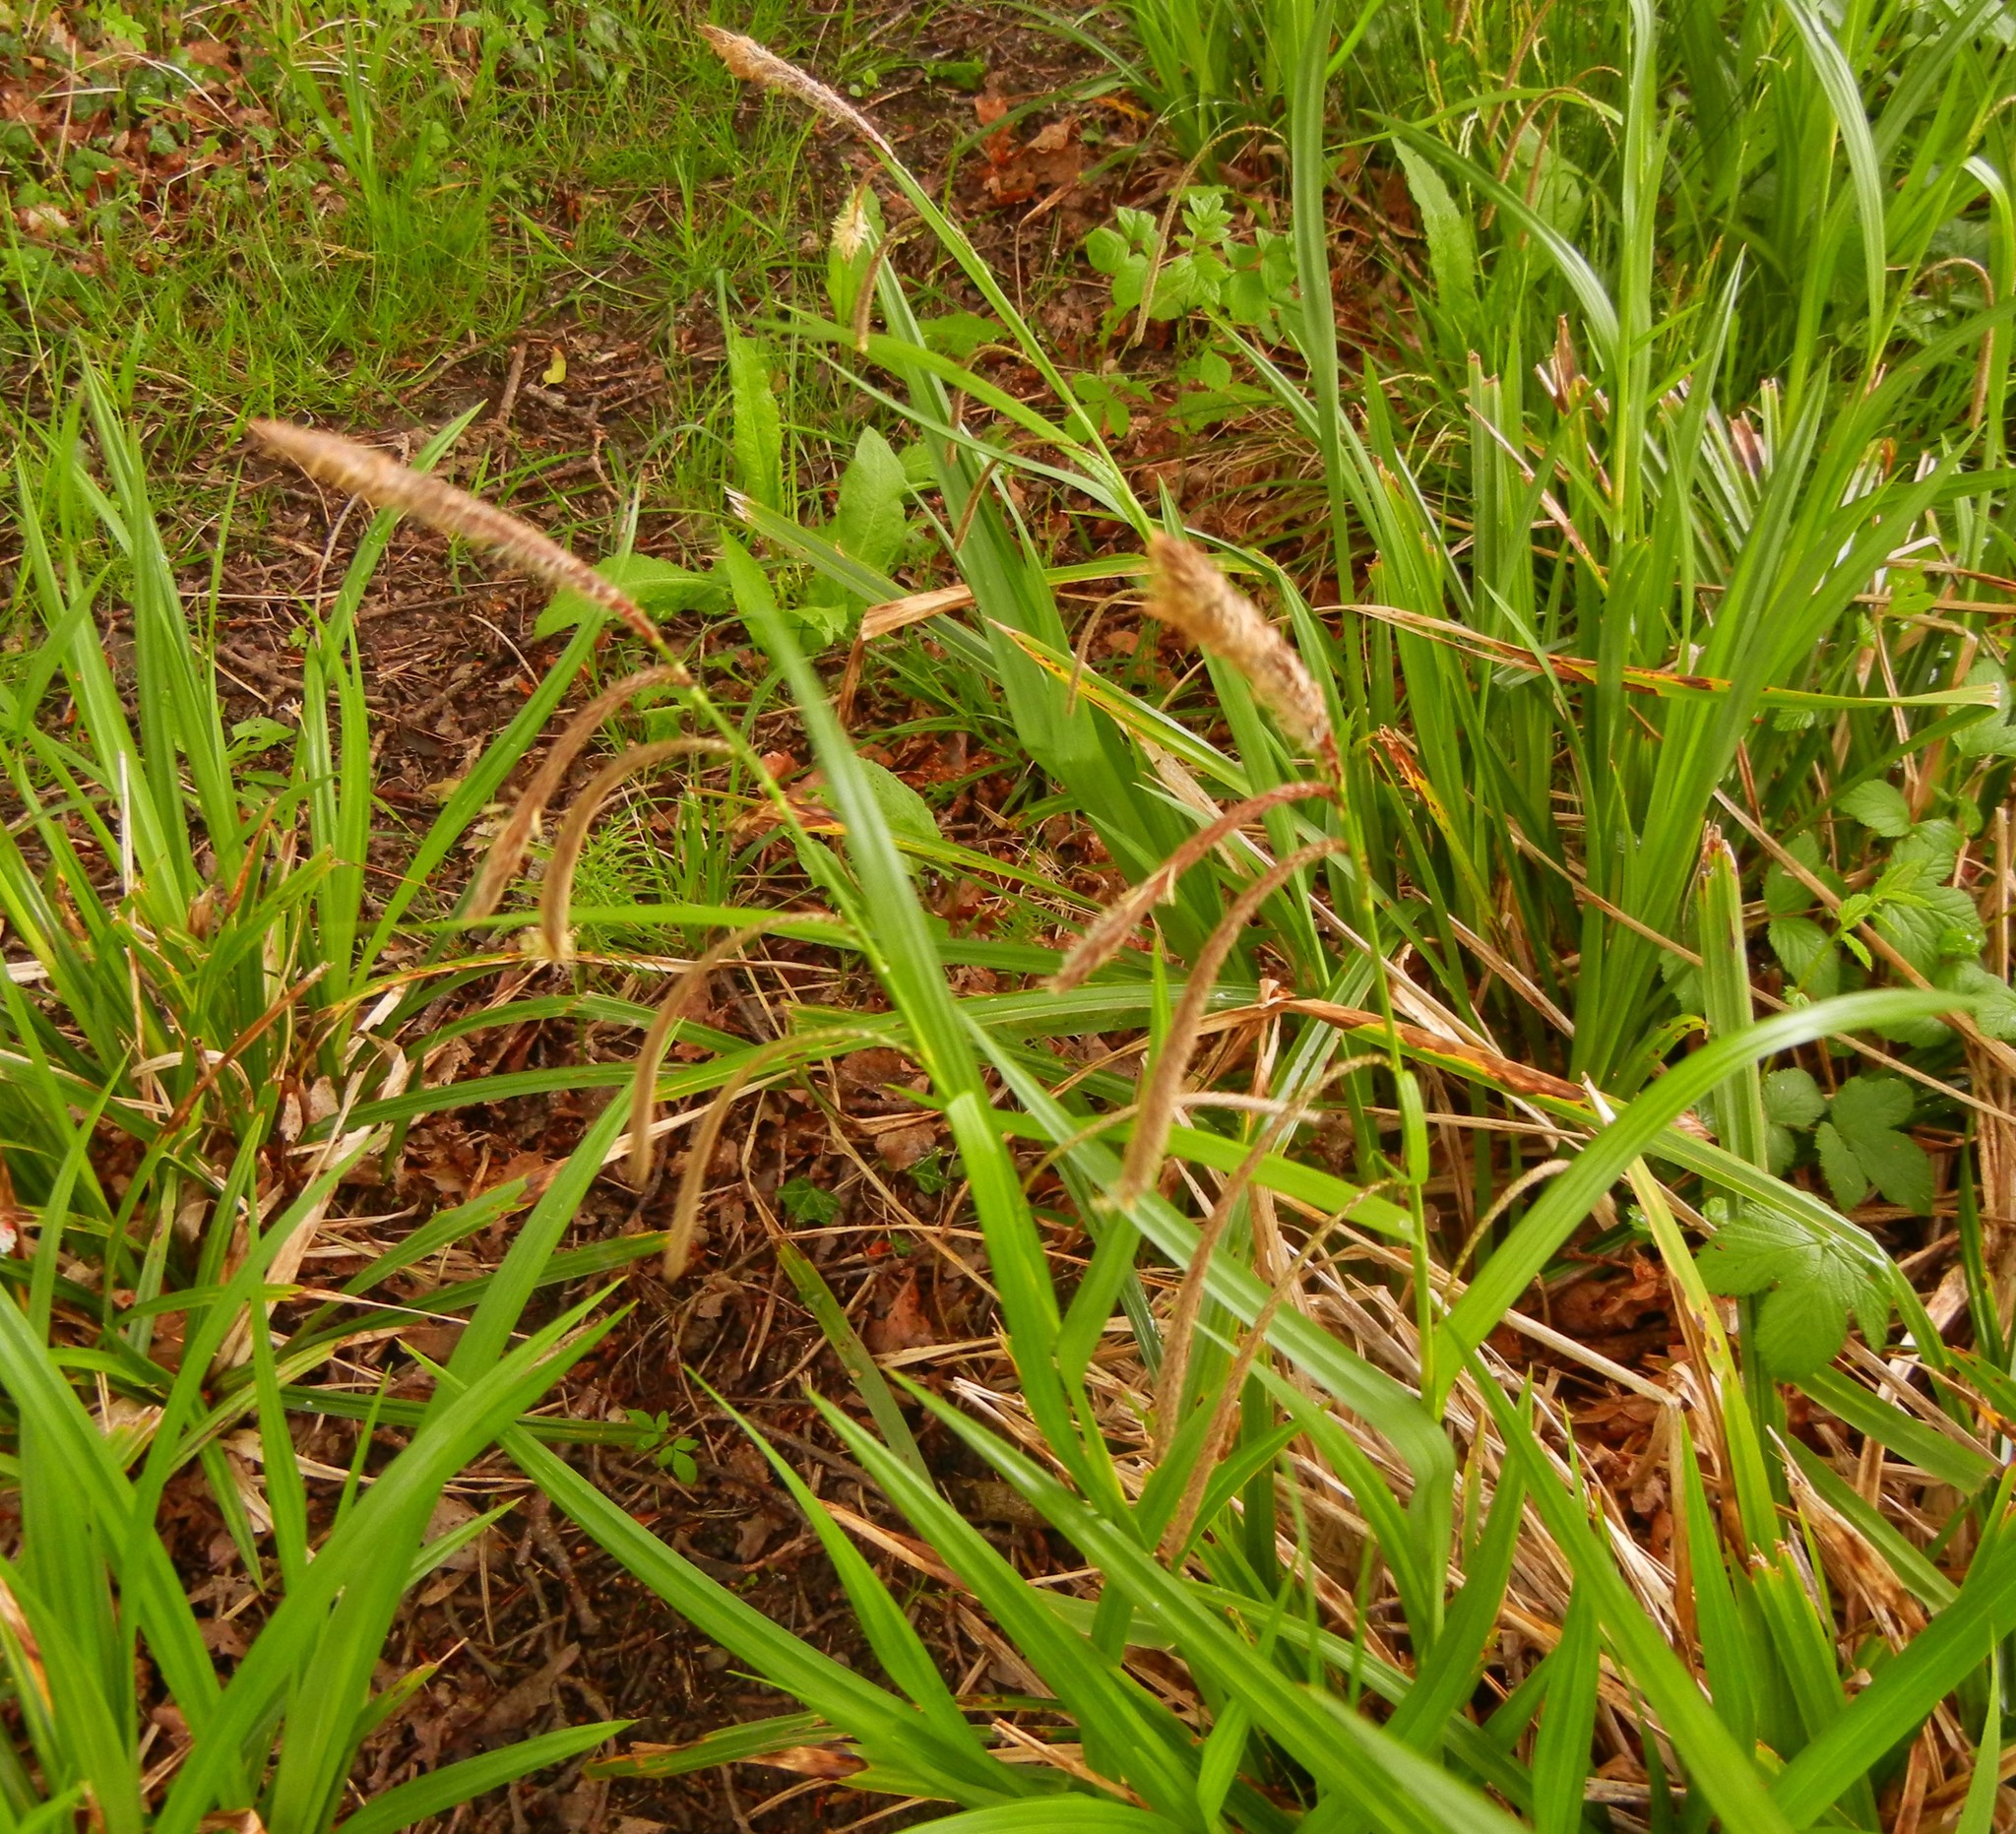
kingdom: Plantae
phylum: Tracheophyta
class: Liliopsida
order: Poales
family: Cyperaceae
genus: Carex
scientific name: Carex pendula
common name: Pendulous sedge
